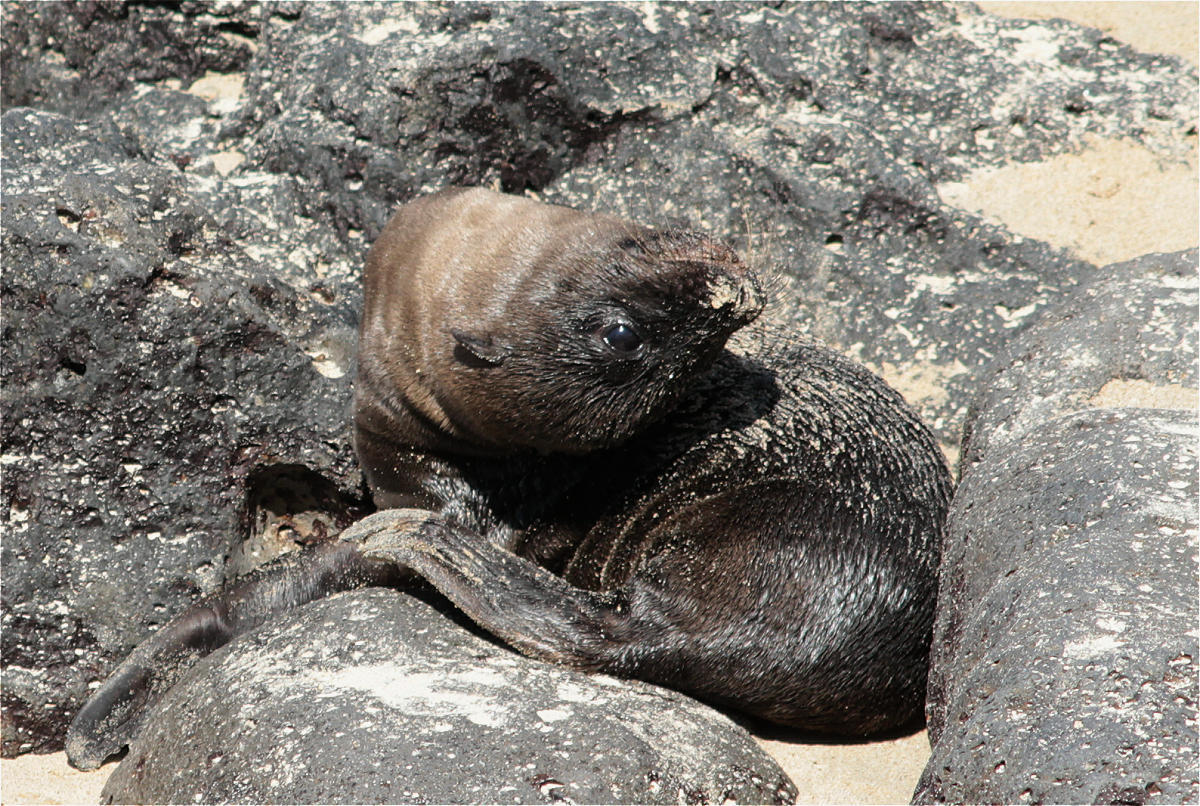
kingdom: Animalia
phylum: Chordata
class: Mammalia
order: Carnivora
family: Otariidae
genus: Zalophus
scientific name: Zalophus wollebaeki
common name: Galapagos sea lion
